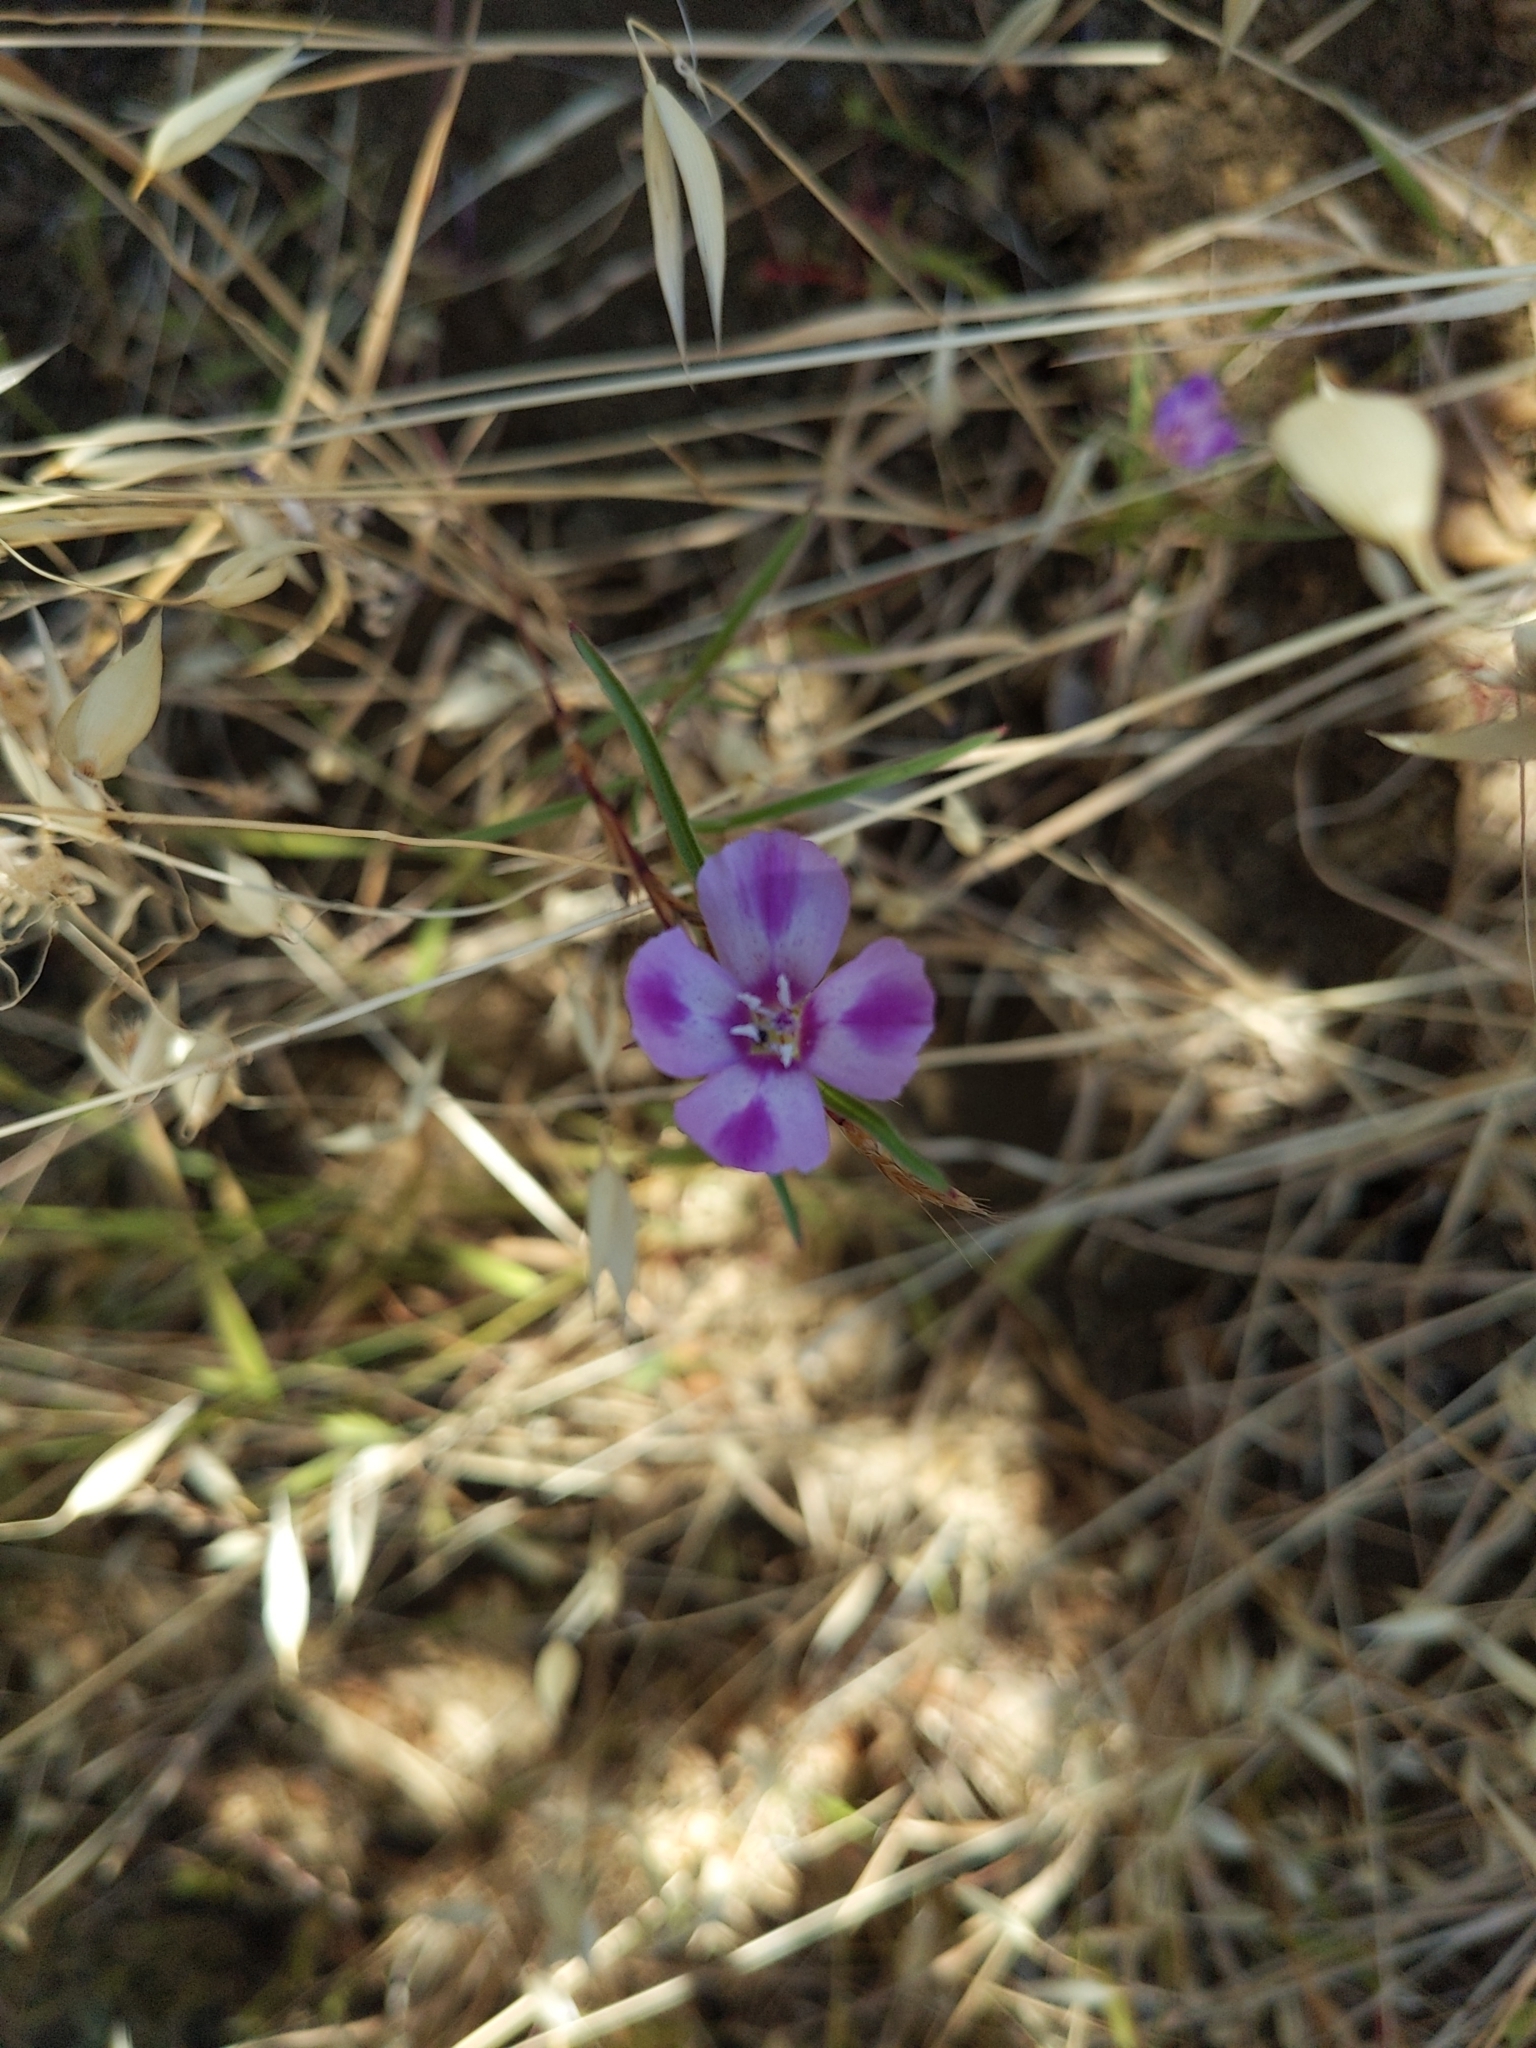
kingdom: Plantae
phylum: Tracheophyta
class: Magnoliopsida
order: Myrtales
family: Onagraceae
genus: Clarkia
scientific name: Clarkia purpurea
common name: Purple clarkia
